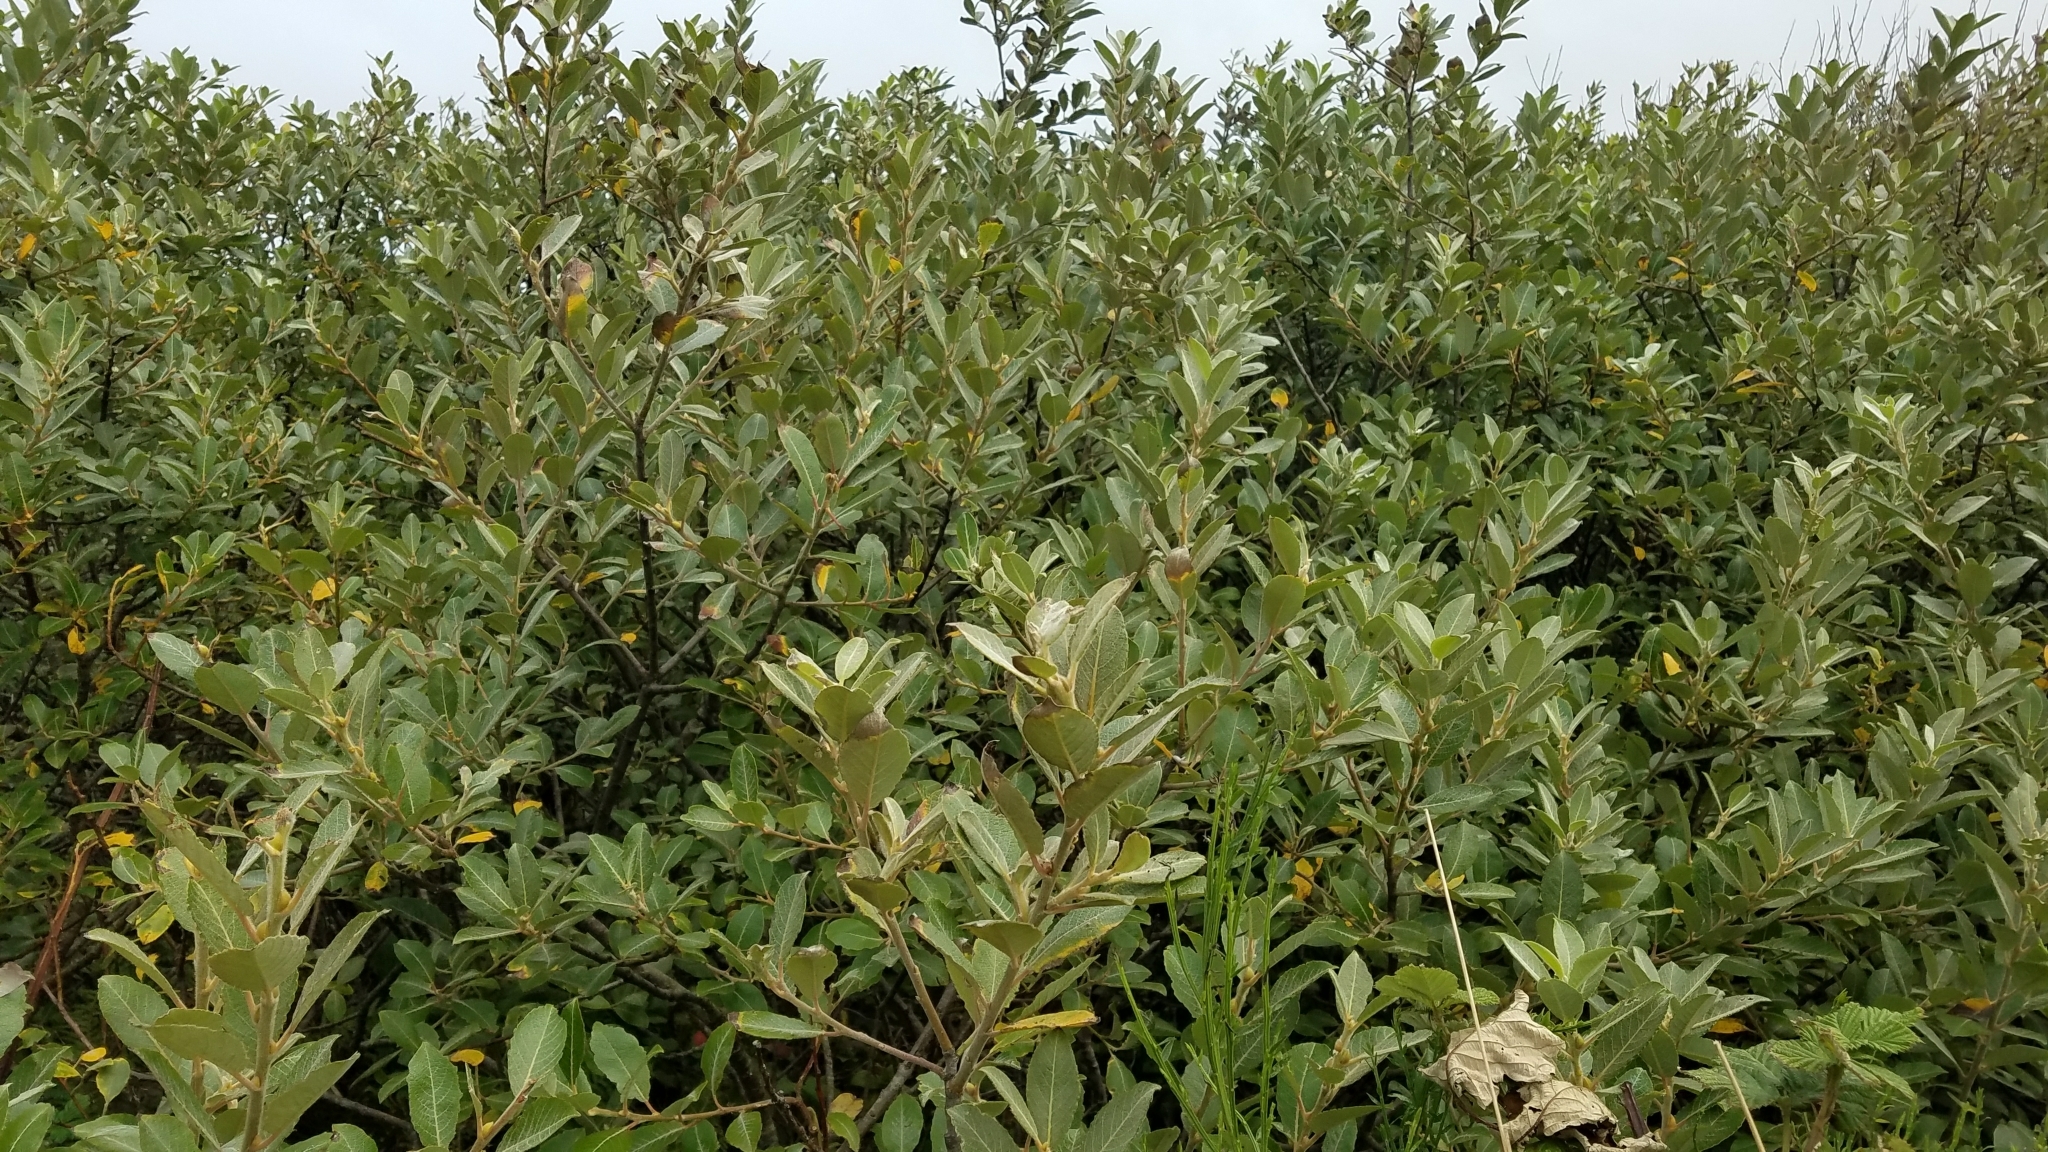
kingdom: Plantae
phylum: Tracheophyta
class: Magnoliopsida
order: Malpighiales
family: Salicaceae
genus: Salix
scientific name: Salix hookeriana
